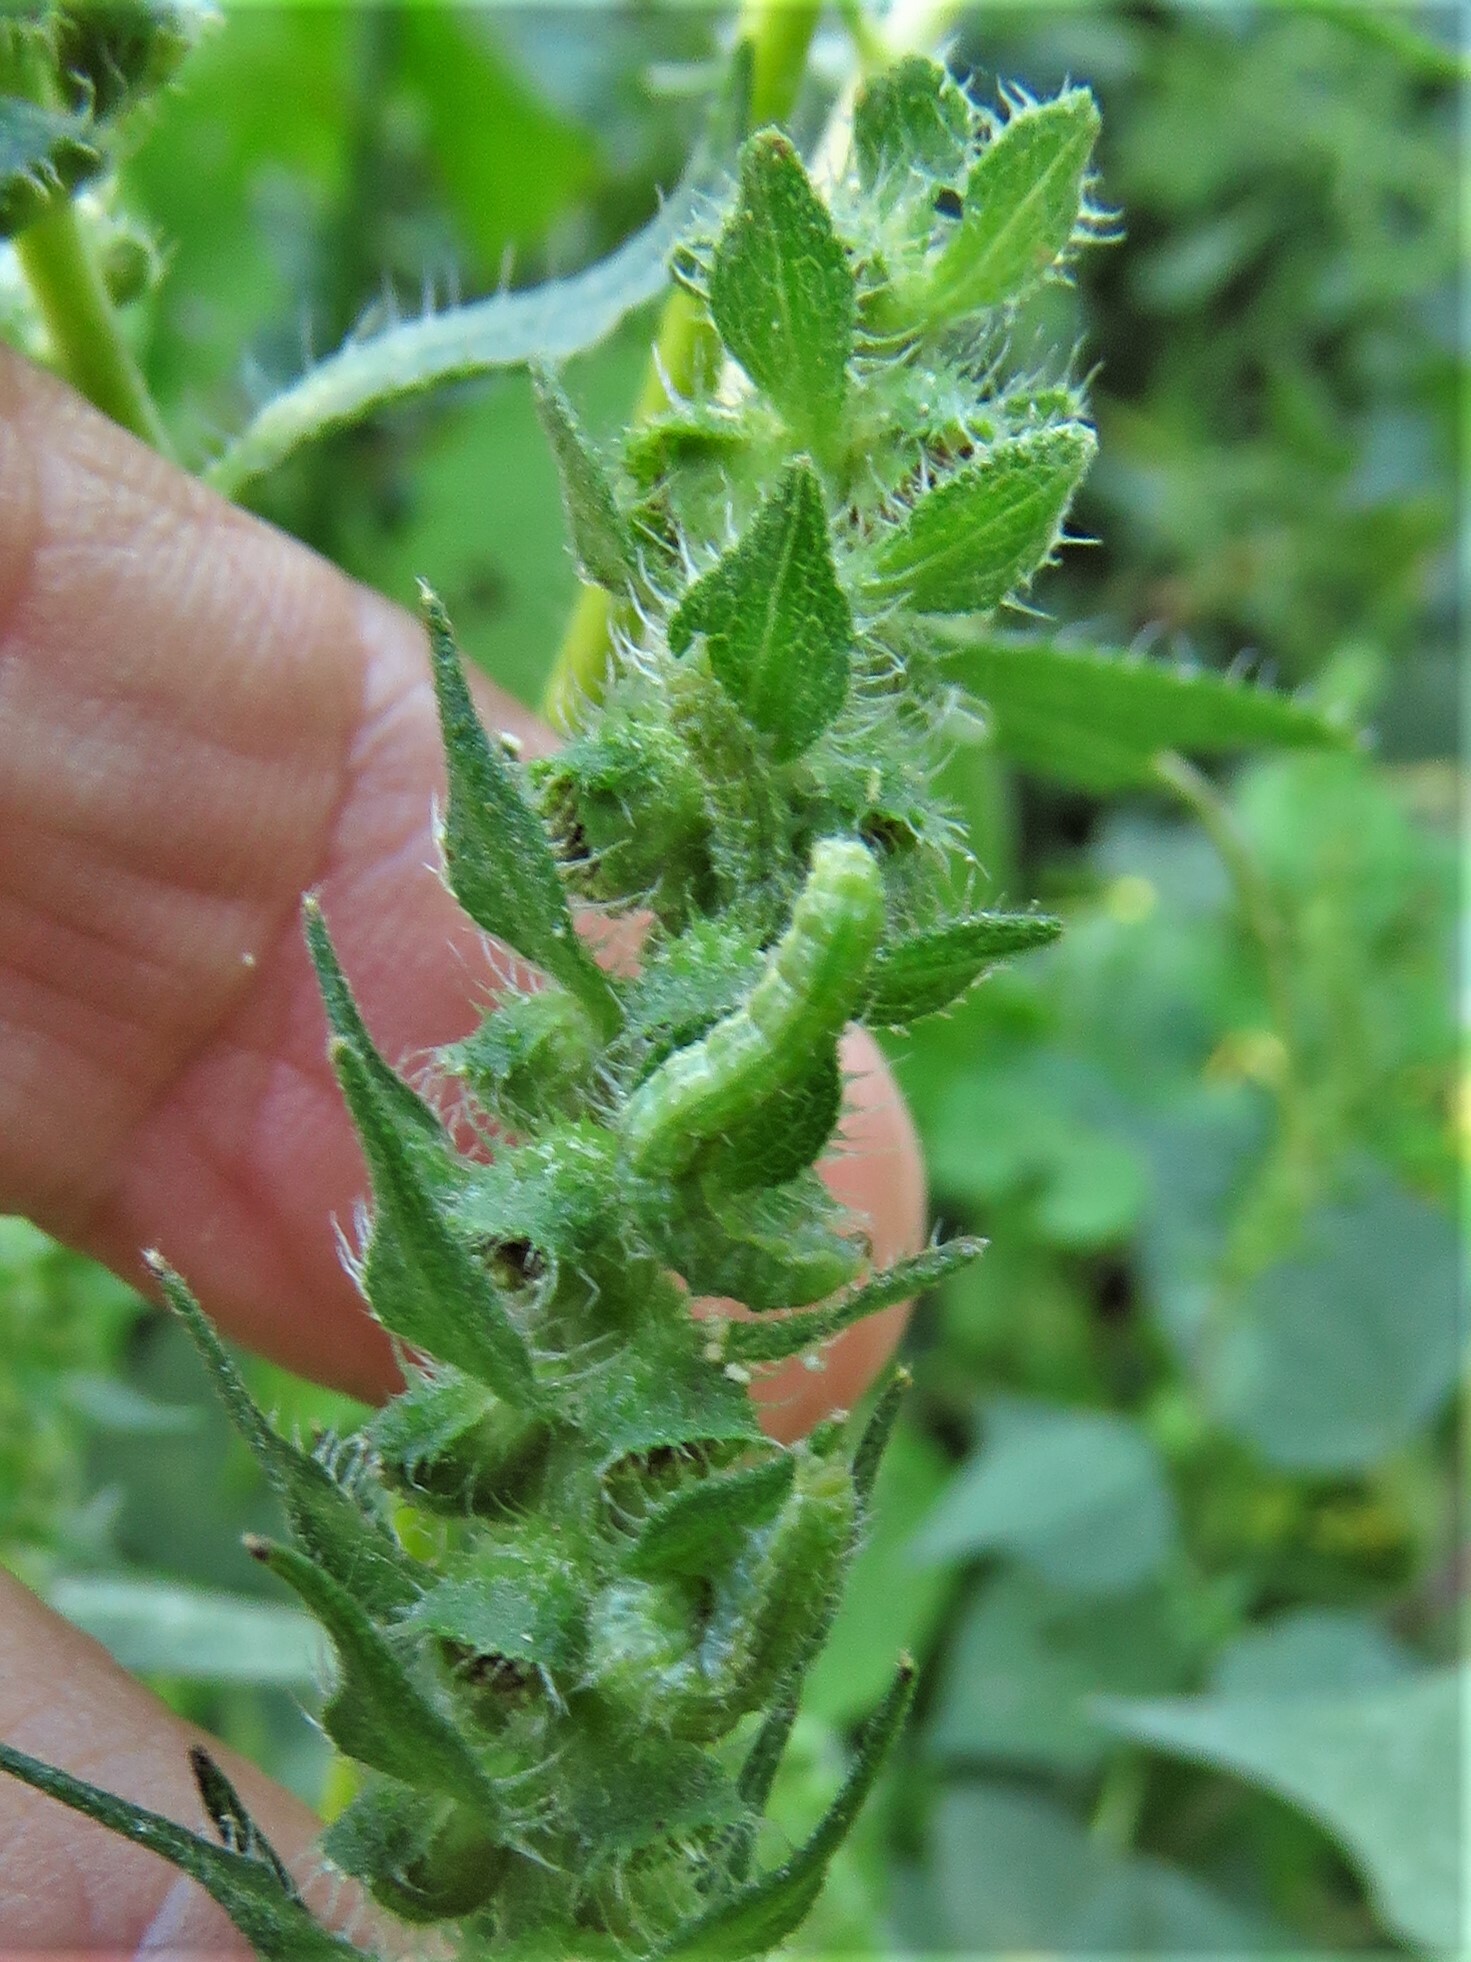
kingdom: Animalia
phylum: Arthropoda
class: Insecta
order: Lepidoptera
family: Noctuidae
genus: Schinia
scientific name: Schinia gracilenta
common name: Slender flower moth
